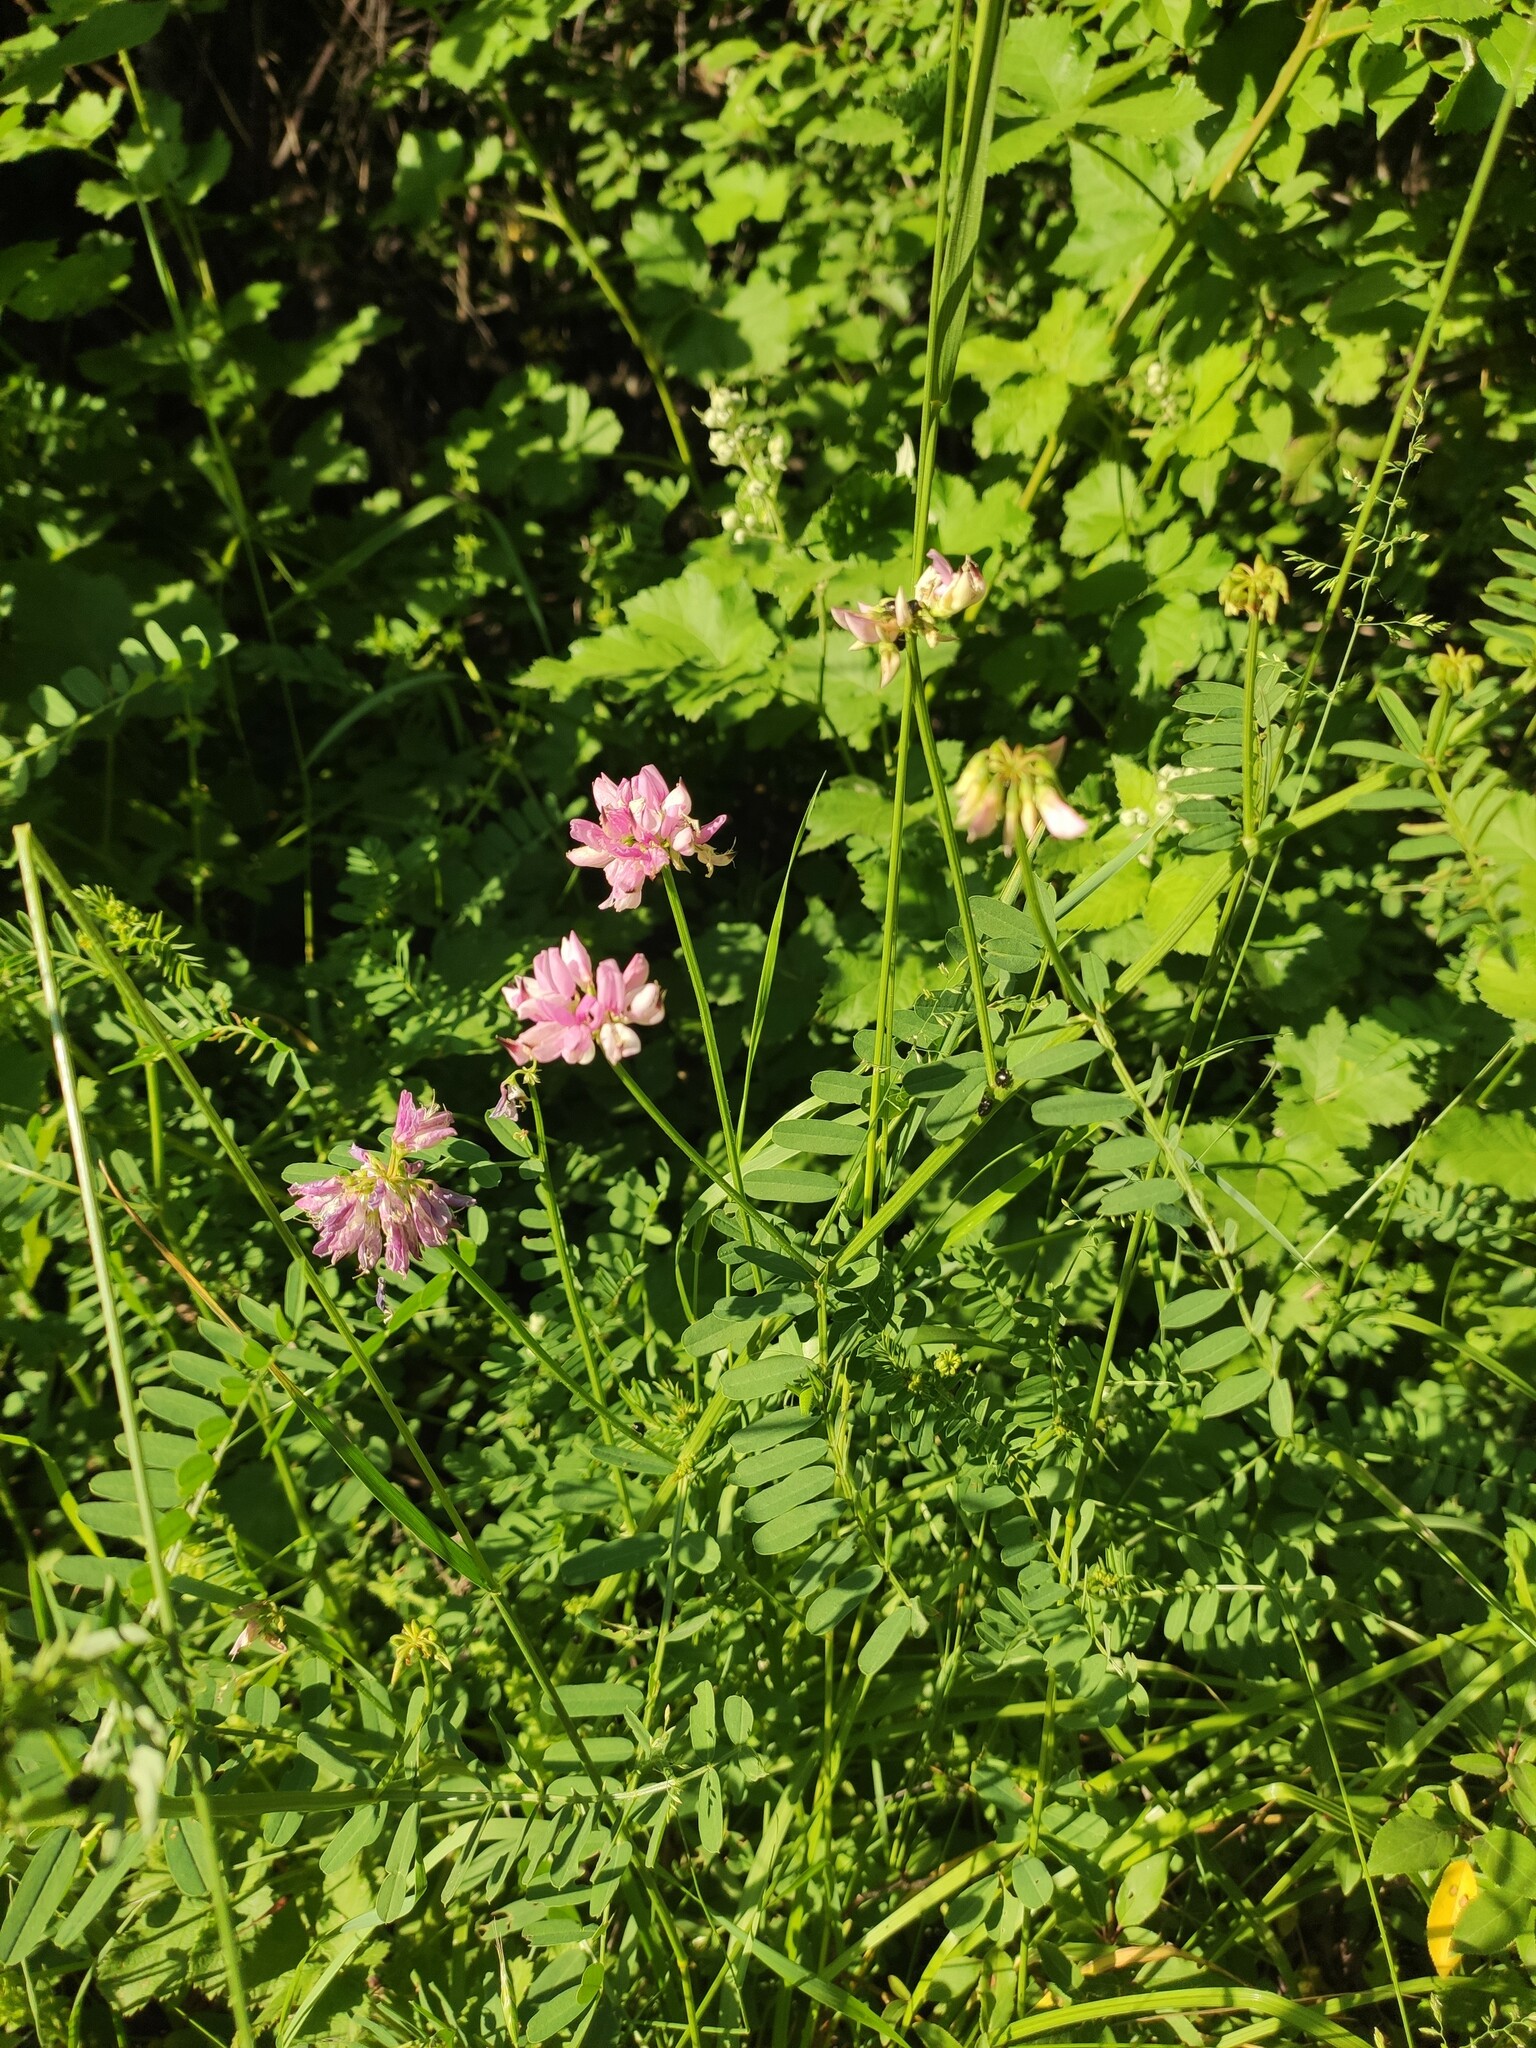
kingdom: Plantae
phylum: Tracheophyta
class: Magnoliopsida
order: Fabales
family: Fabaceae
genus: Coronilla
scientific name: Coronilla varia
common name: Crownvetch
